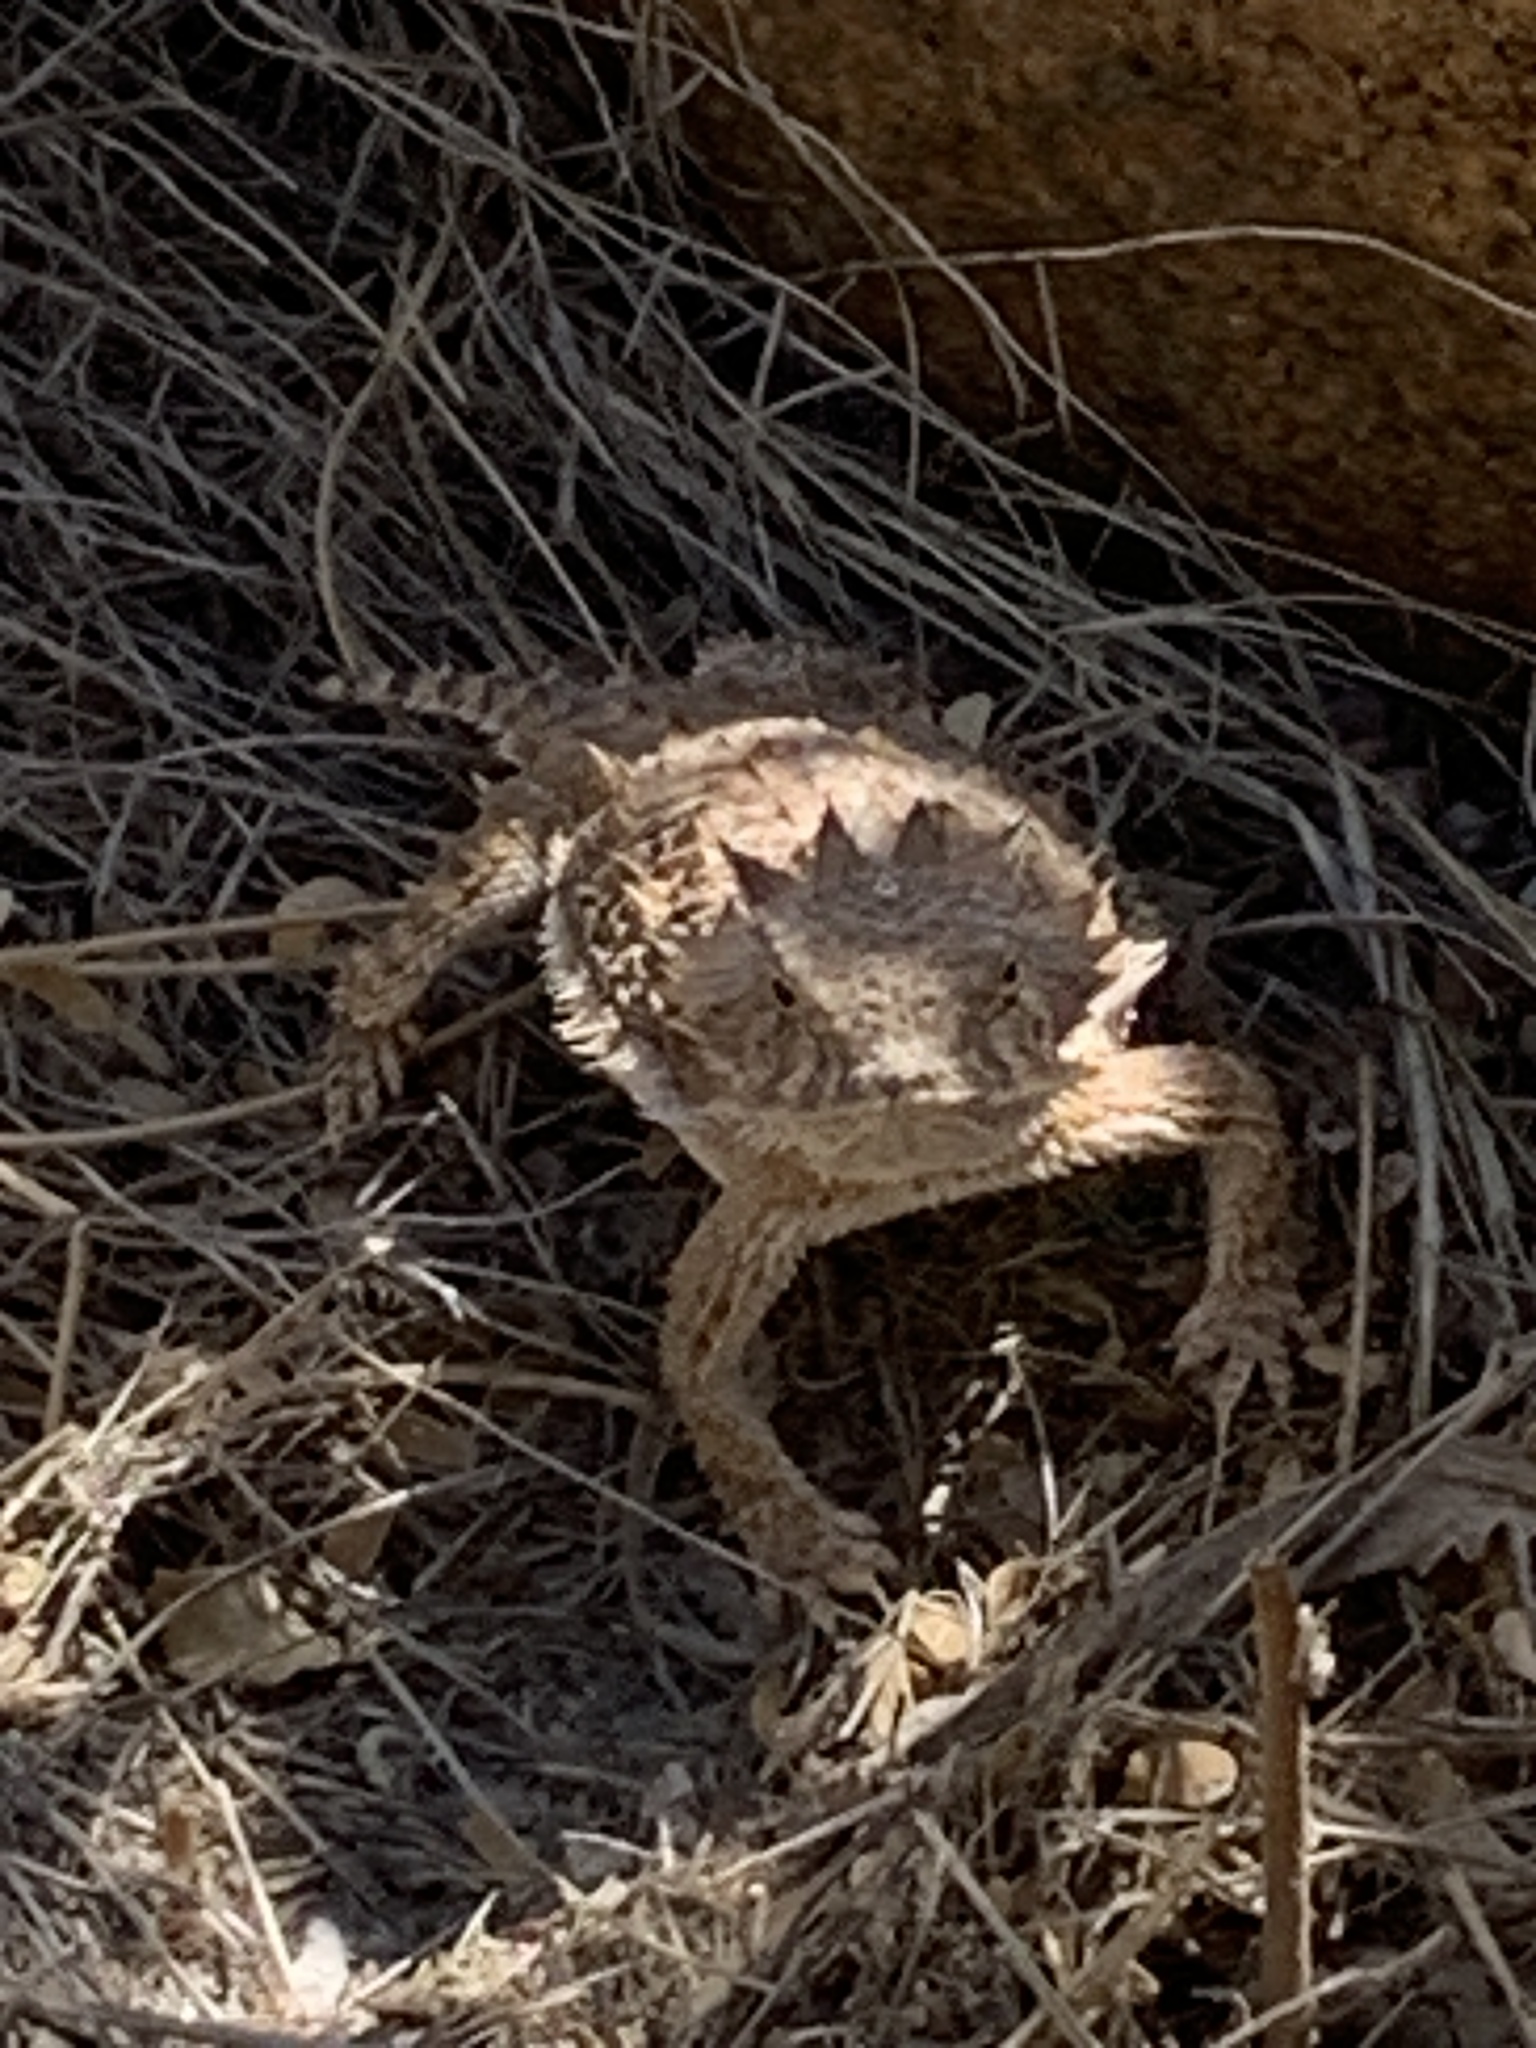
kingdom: Animalia
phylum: Chordata
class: Squamata
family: Phrynosomatidae
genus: Phrynosoma
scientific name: Phrynosoma solare
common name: Regal horned lizard
